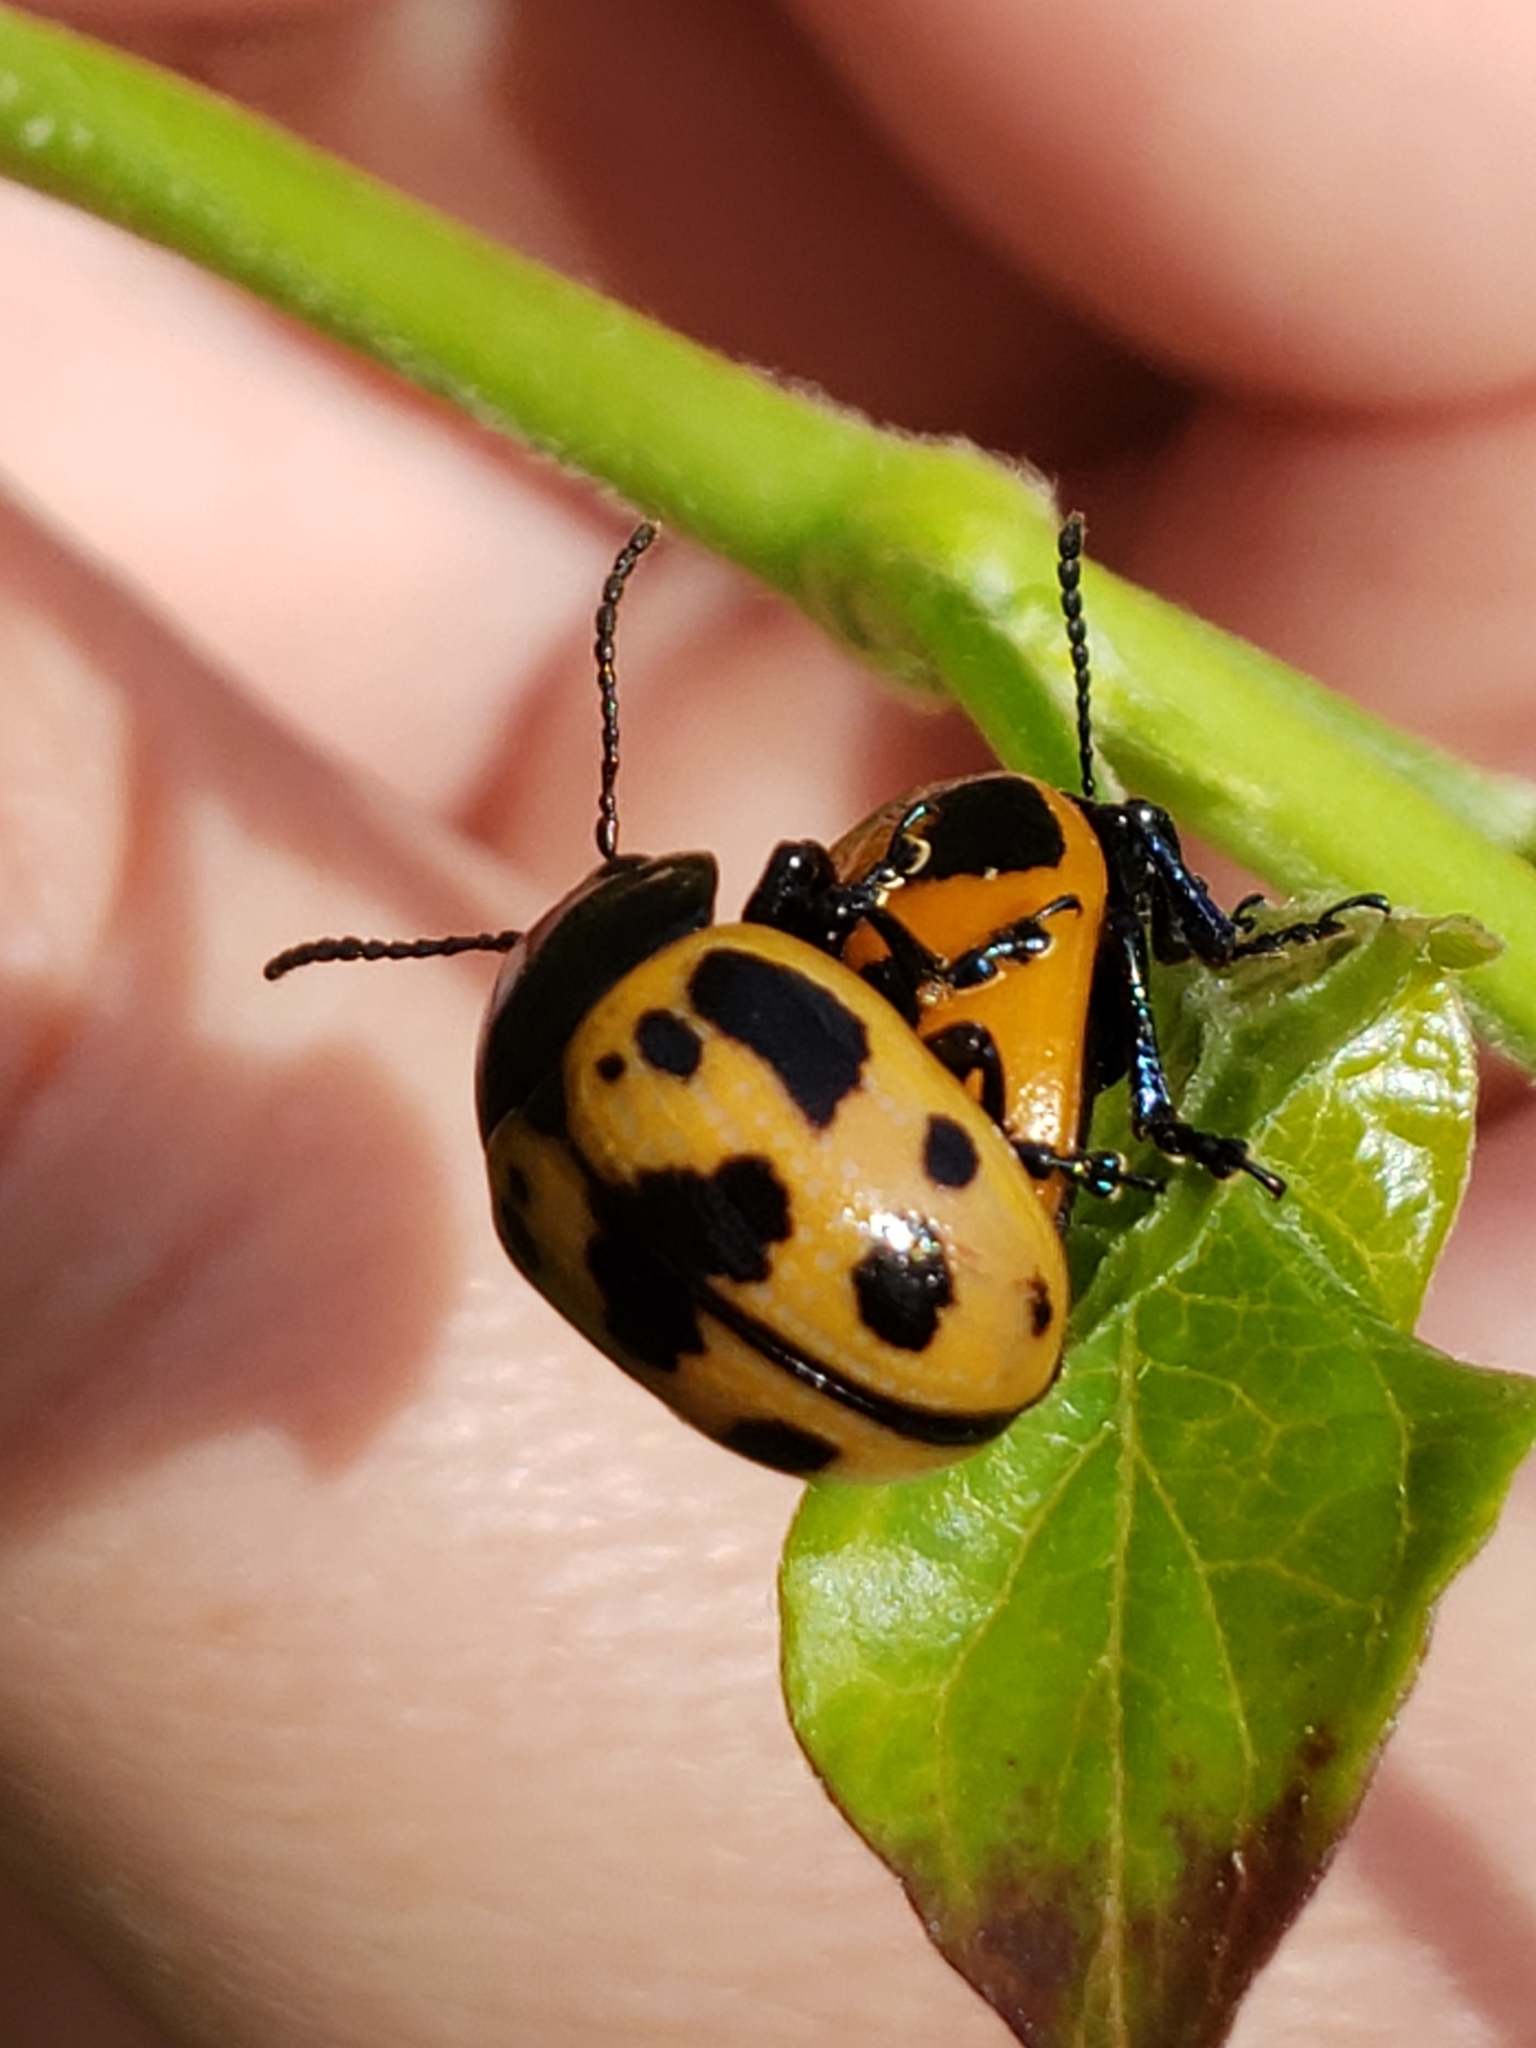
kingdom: Animalia
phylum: Arthropoda
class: Insecta
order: Coleoptera
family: Chrysomelidae
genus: Labidomera
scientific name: Labidomera clivicollis
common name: Swamp milkweed leaf beetle
